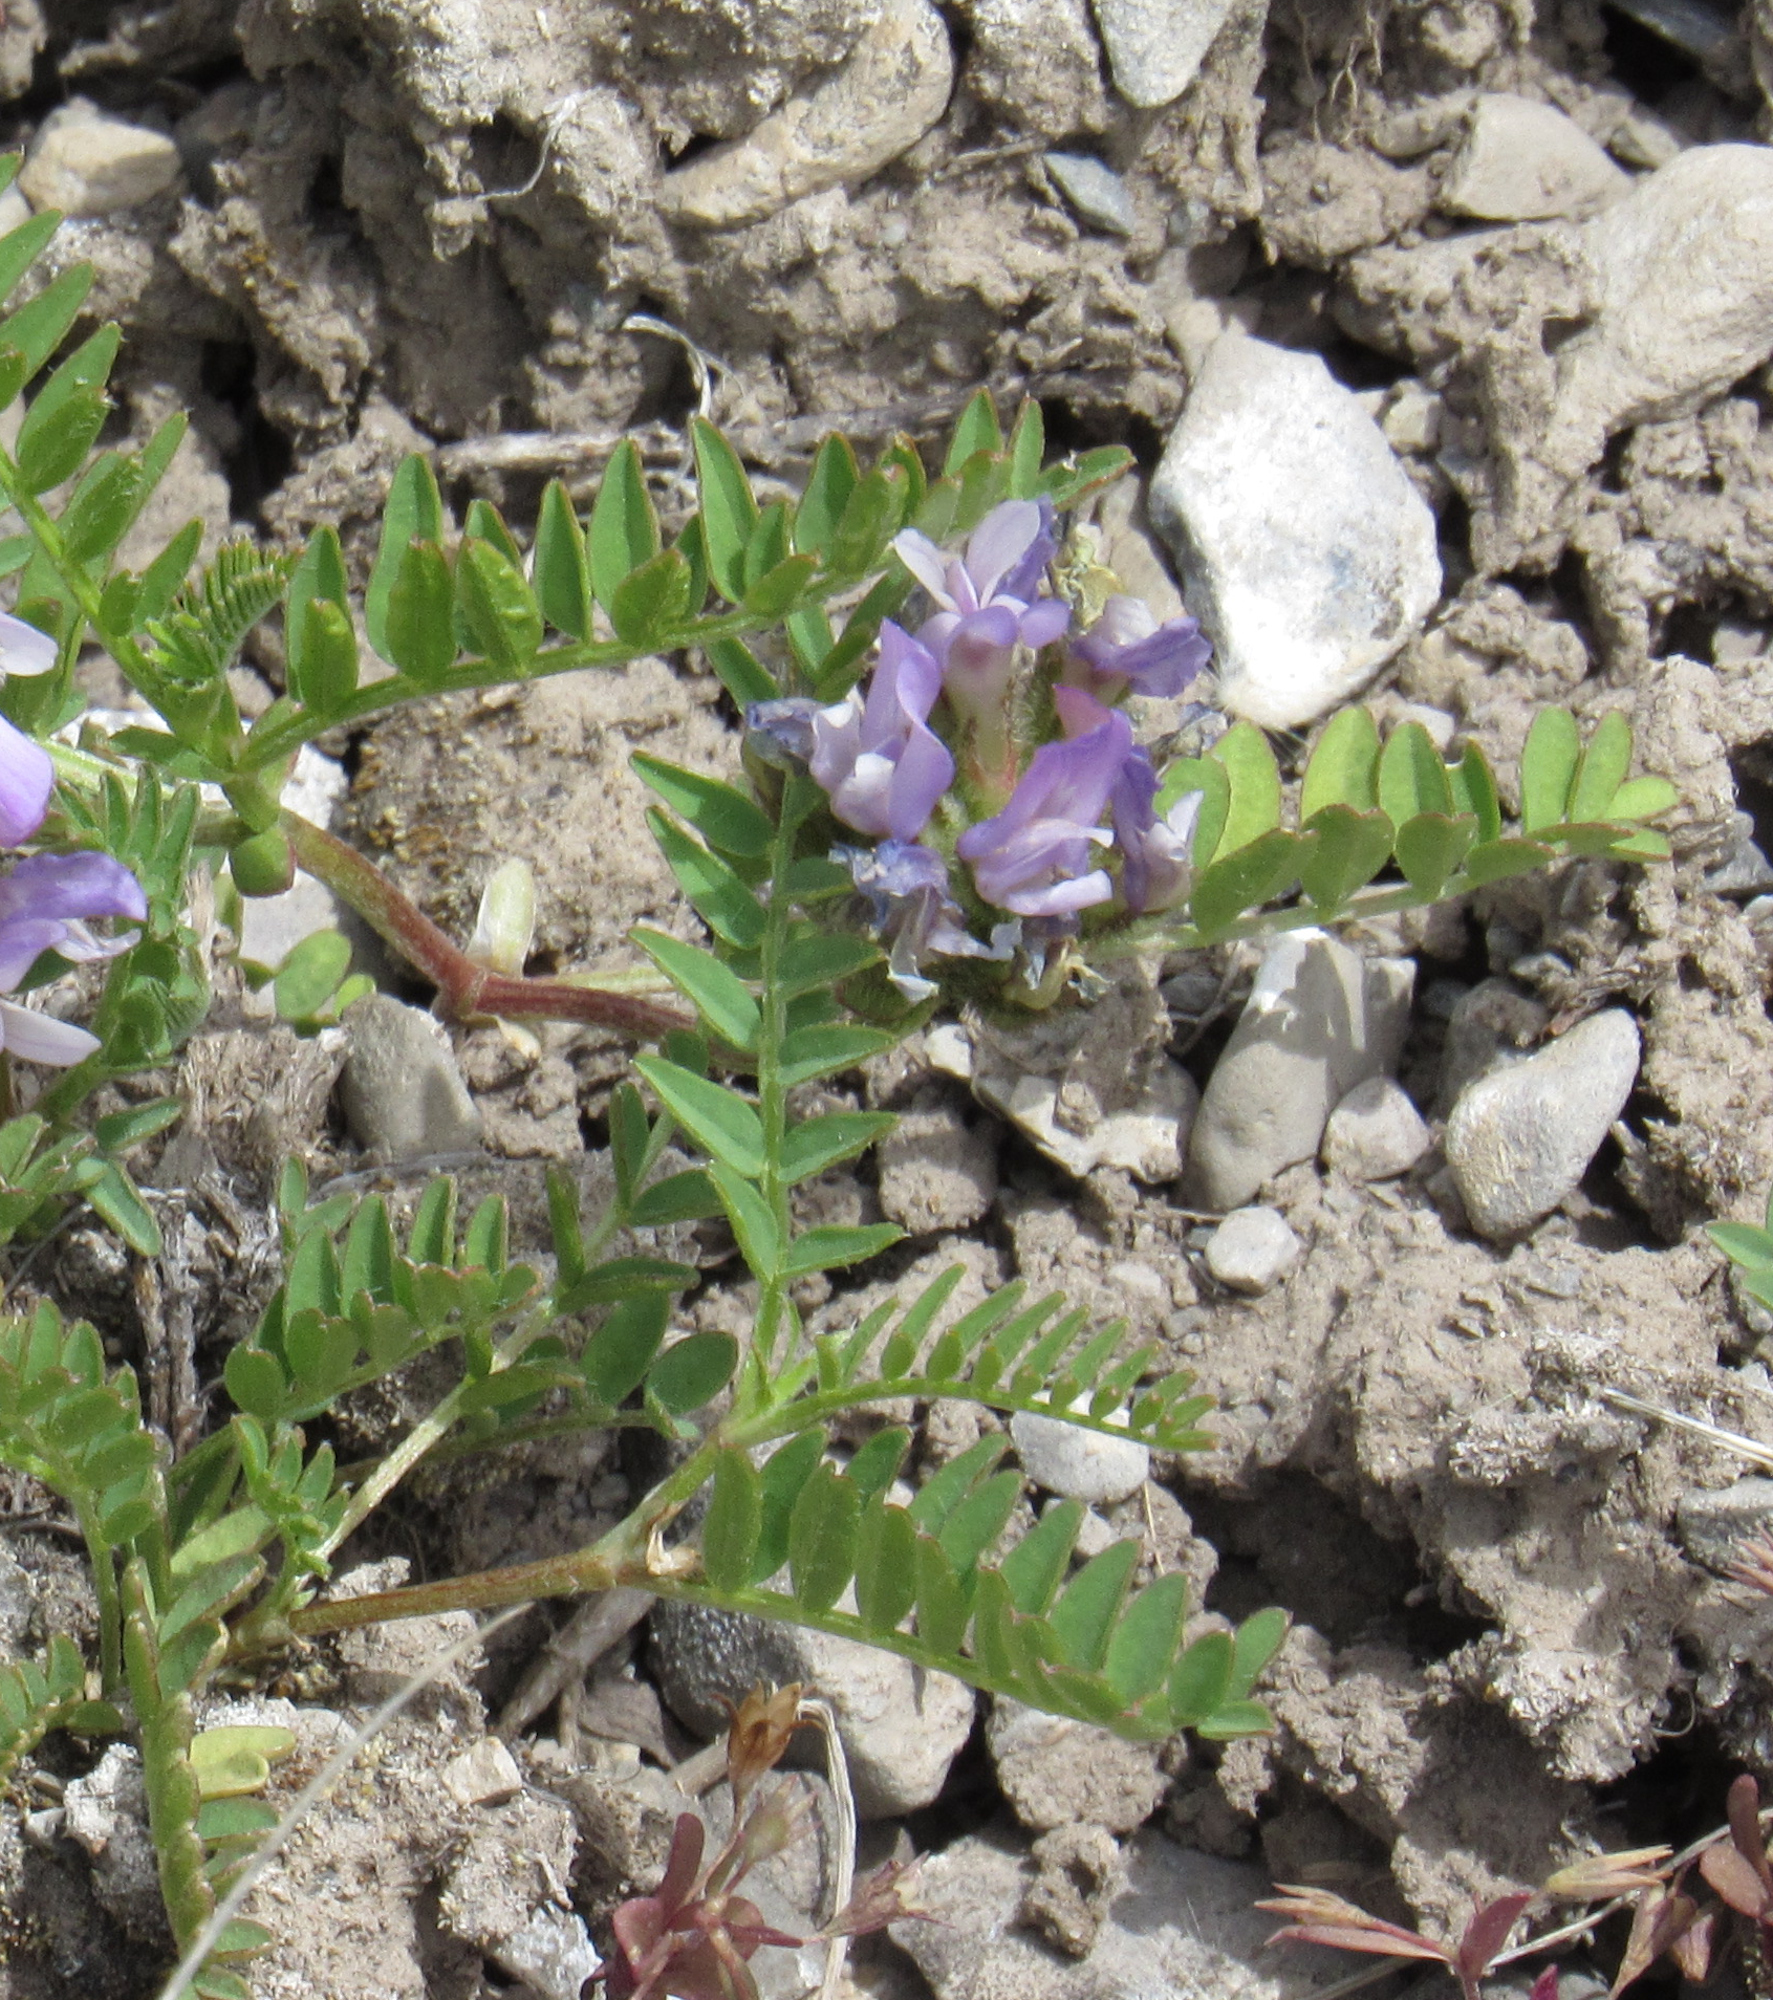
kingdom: Plantae
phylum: Tracheophyta
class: Magnoliopsida
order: Fabales
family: Fabaceae
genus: Astragalus
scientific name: Astragalus agrestis
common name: Field milk-vetch
